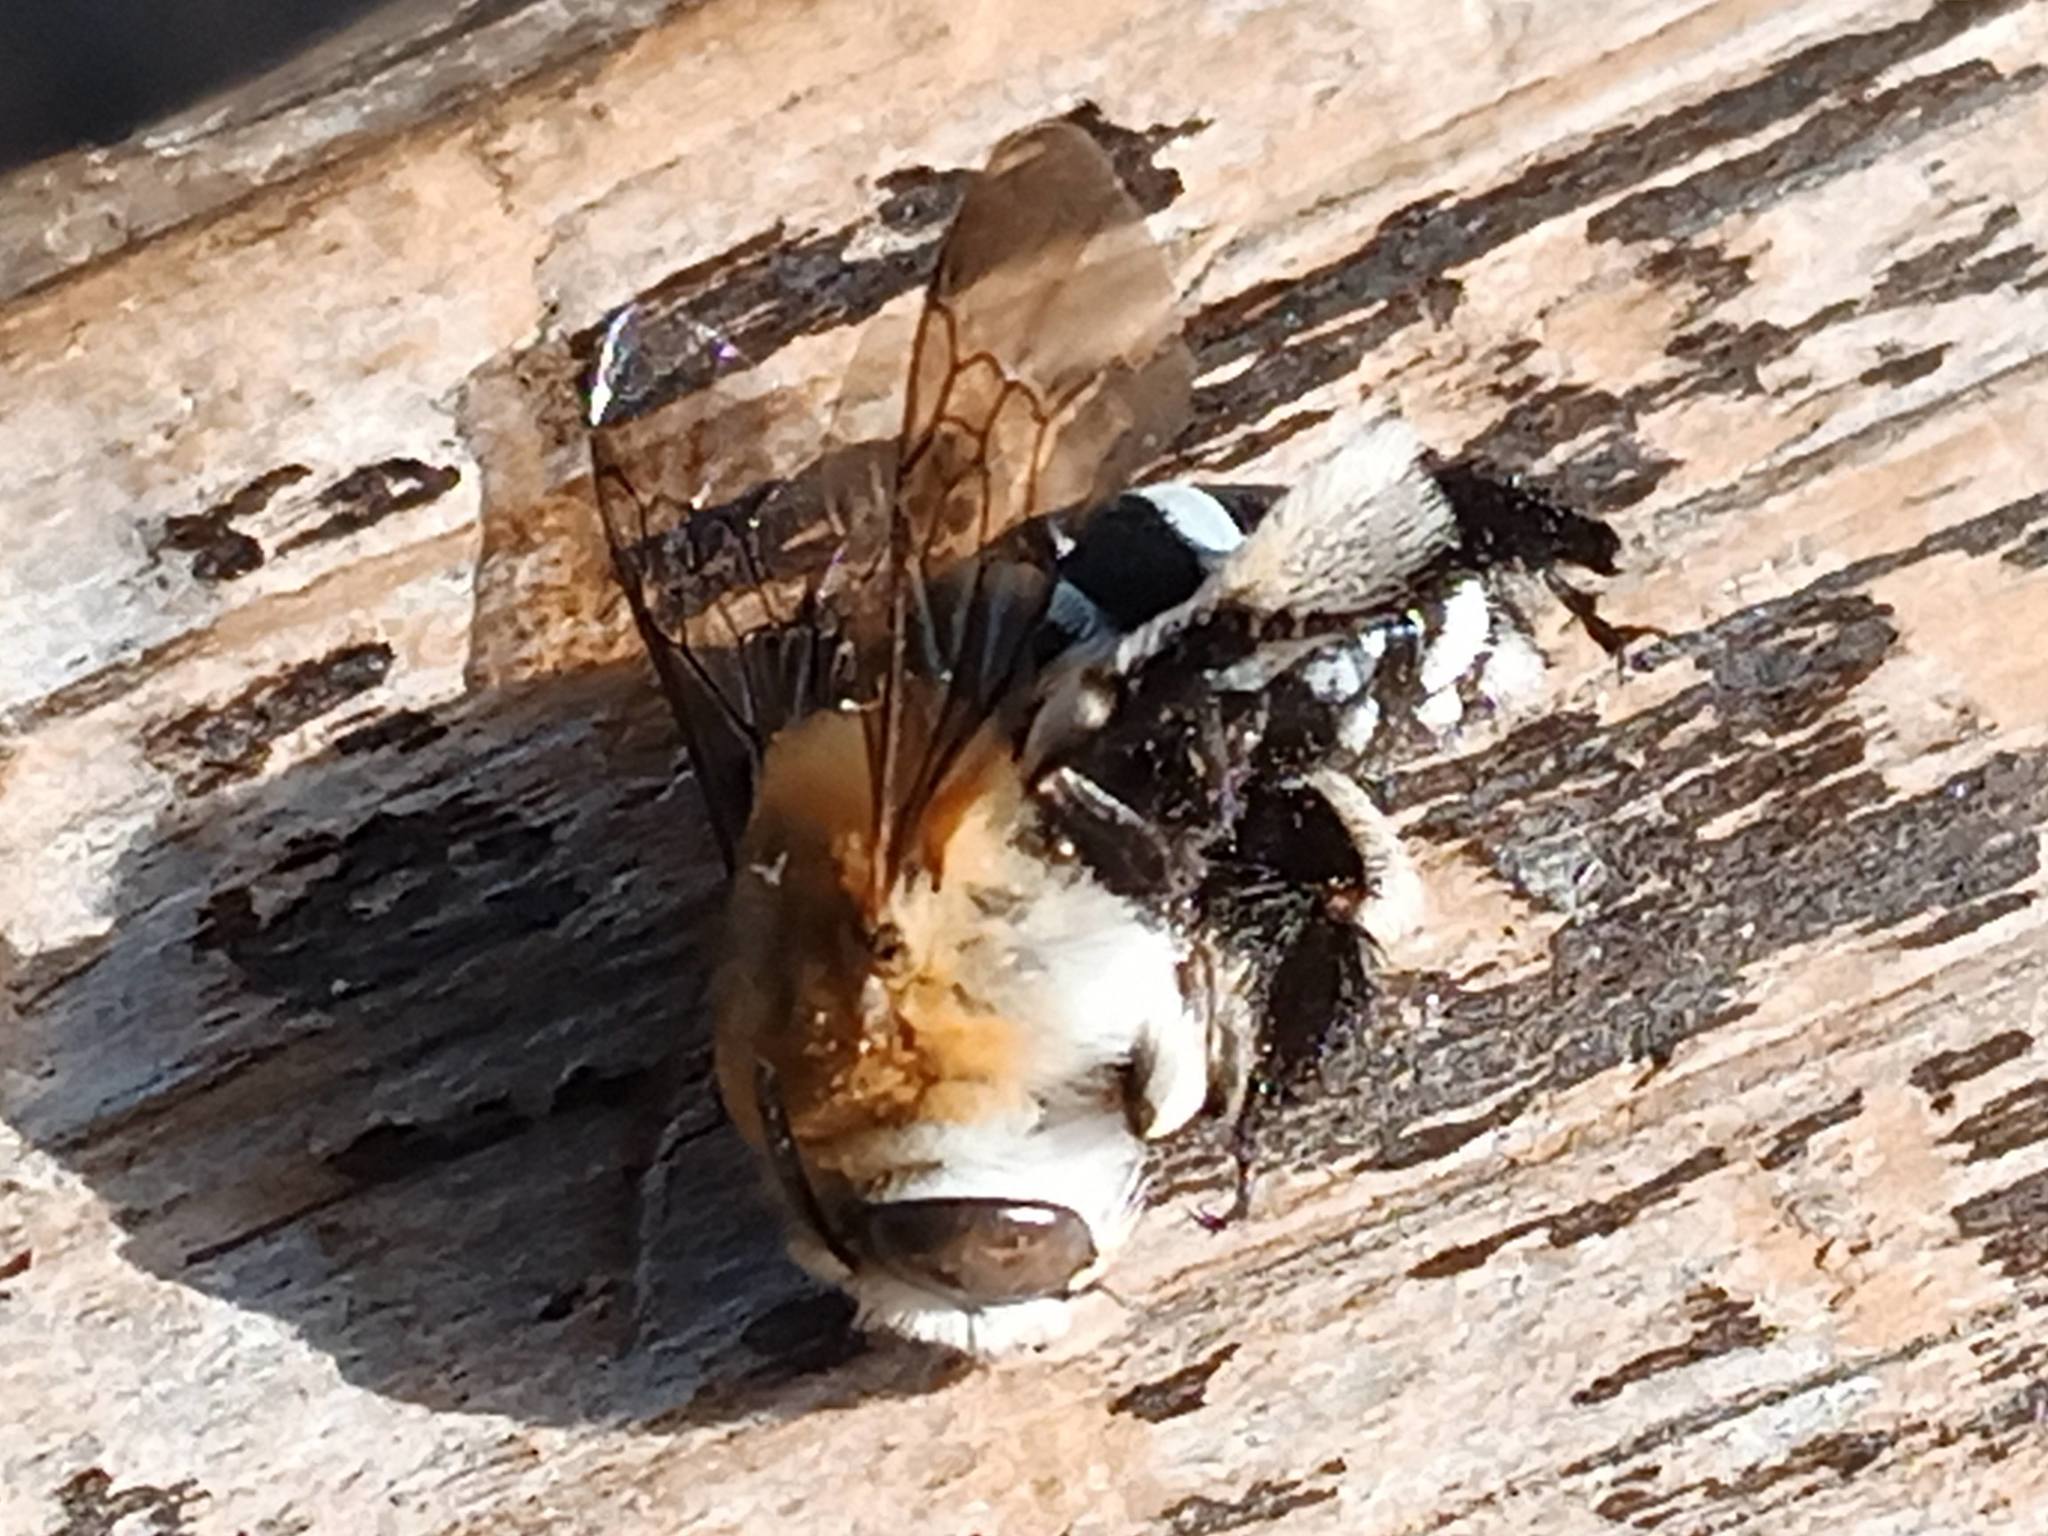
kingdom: Animalia
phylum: Arthropoda
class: Insecta
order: Hymenoptera
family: Apidae
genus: Amegilla
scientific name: Amegilla quadrifasciata
